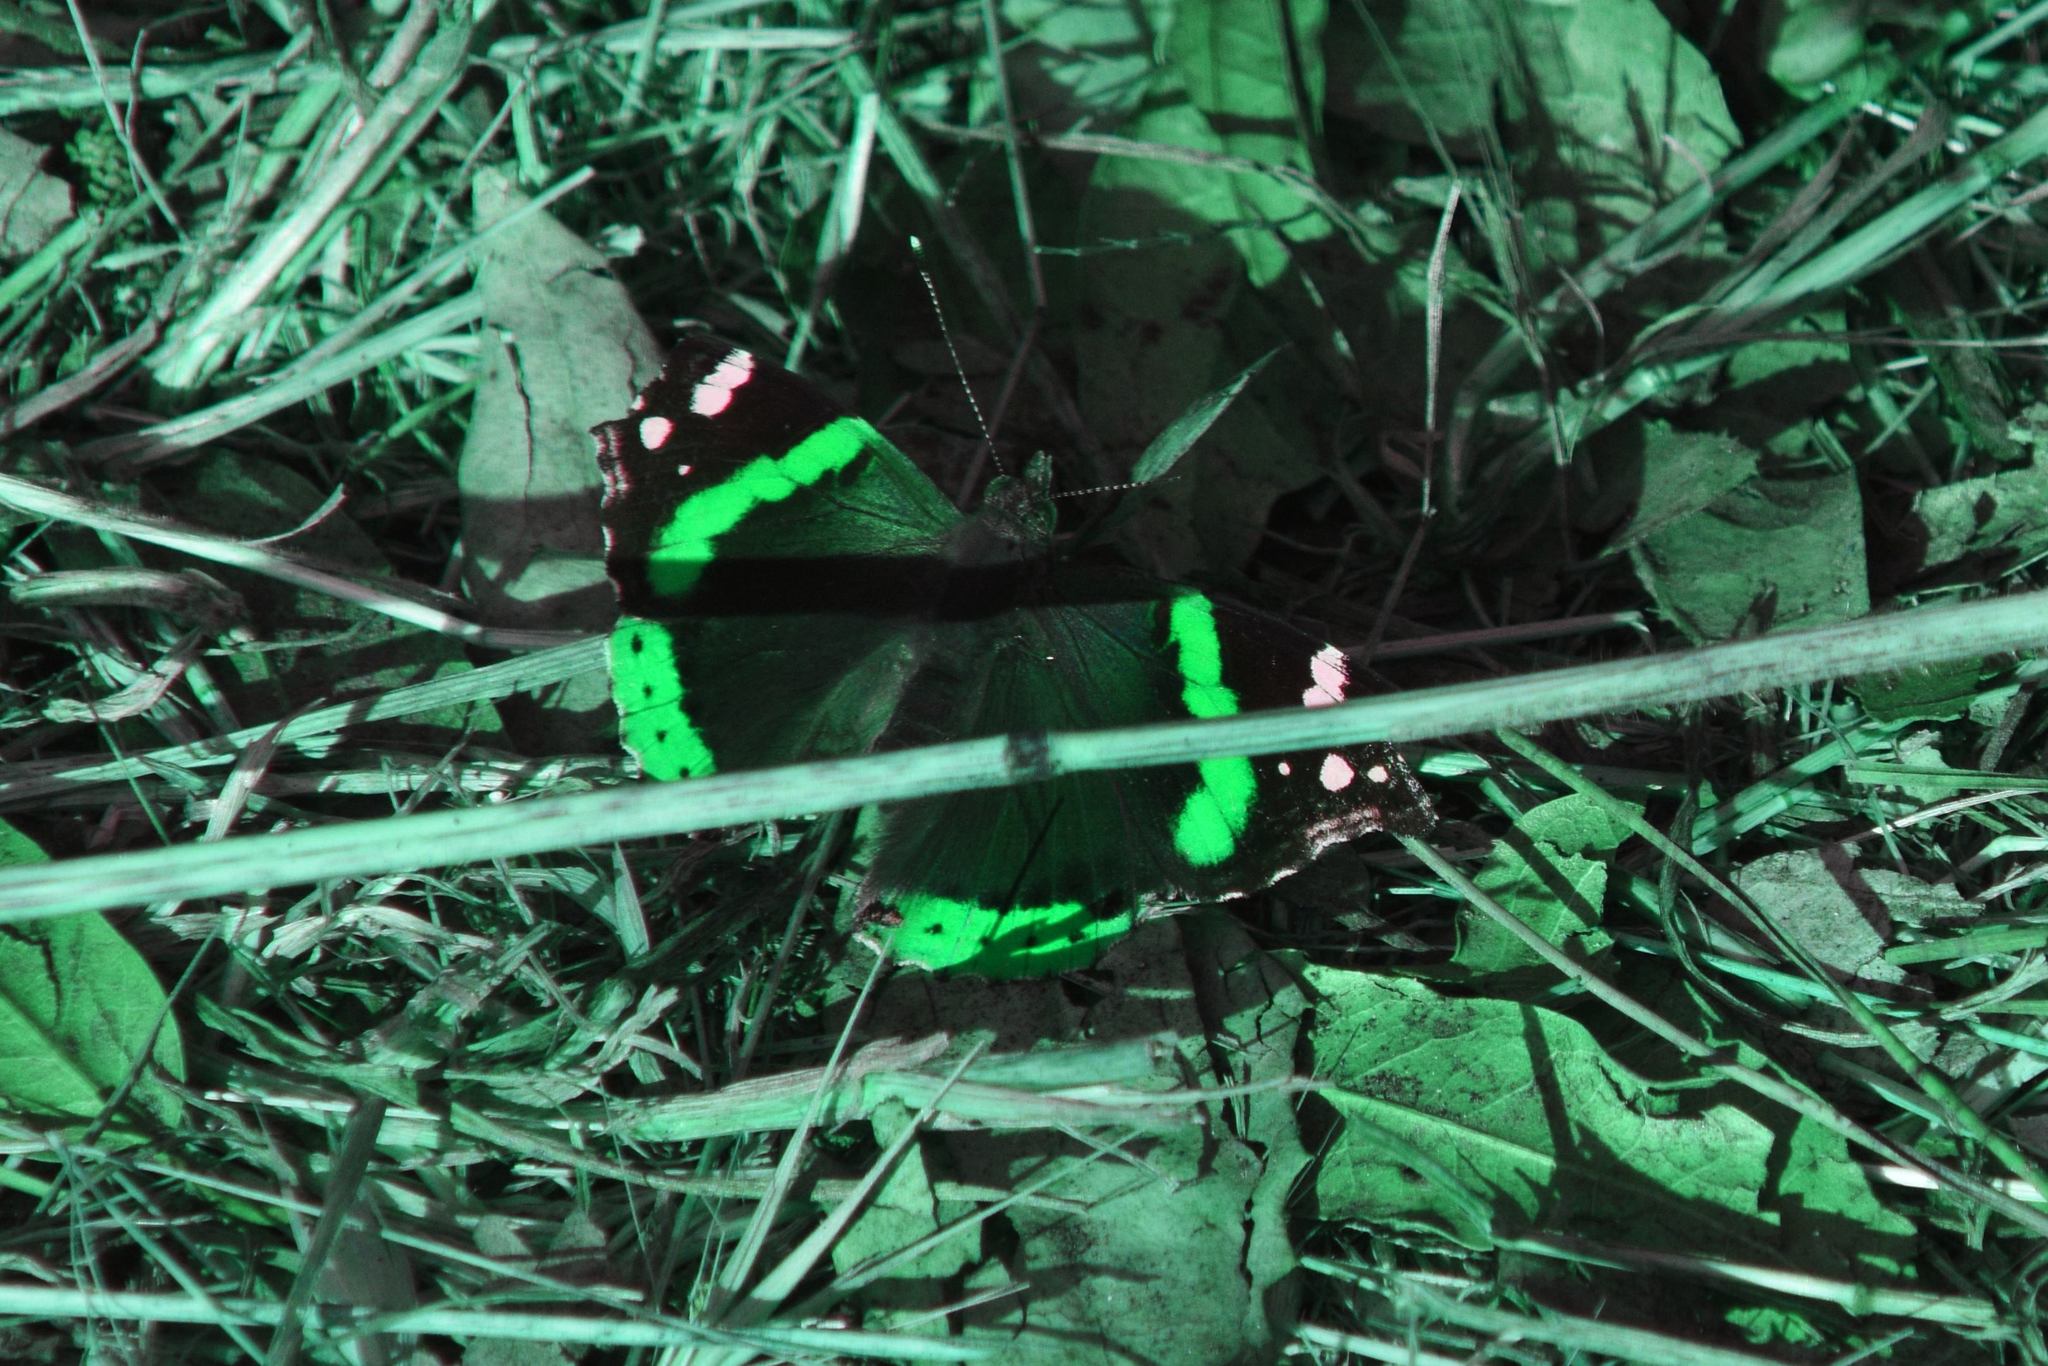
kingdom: Animalia
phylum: Arthropoda
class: Insecta
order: Lepidoptera
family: Nymphalidae
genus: Vanessa
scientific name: Vanessa atalanta
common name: Red admiral
